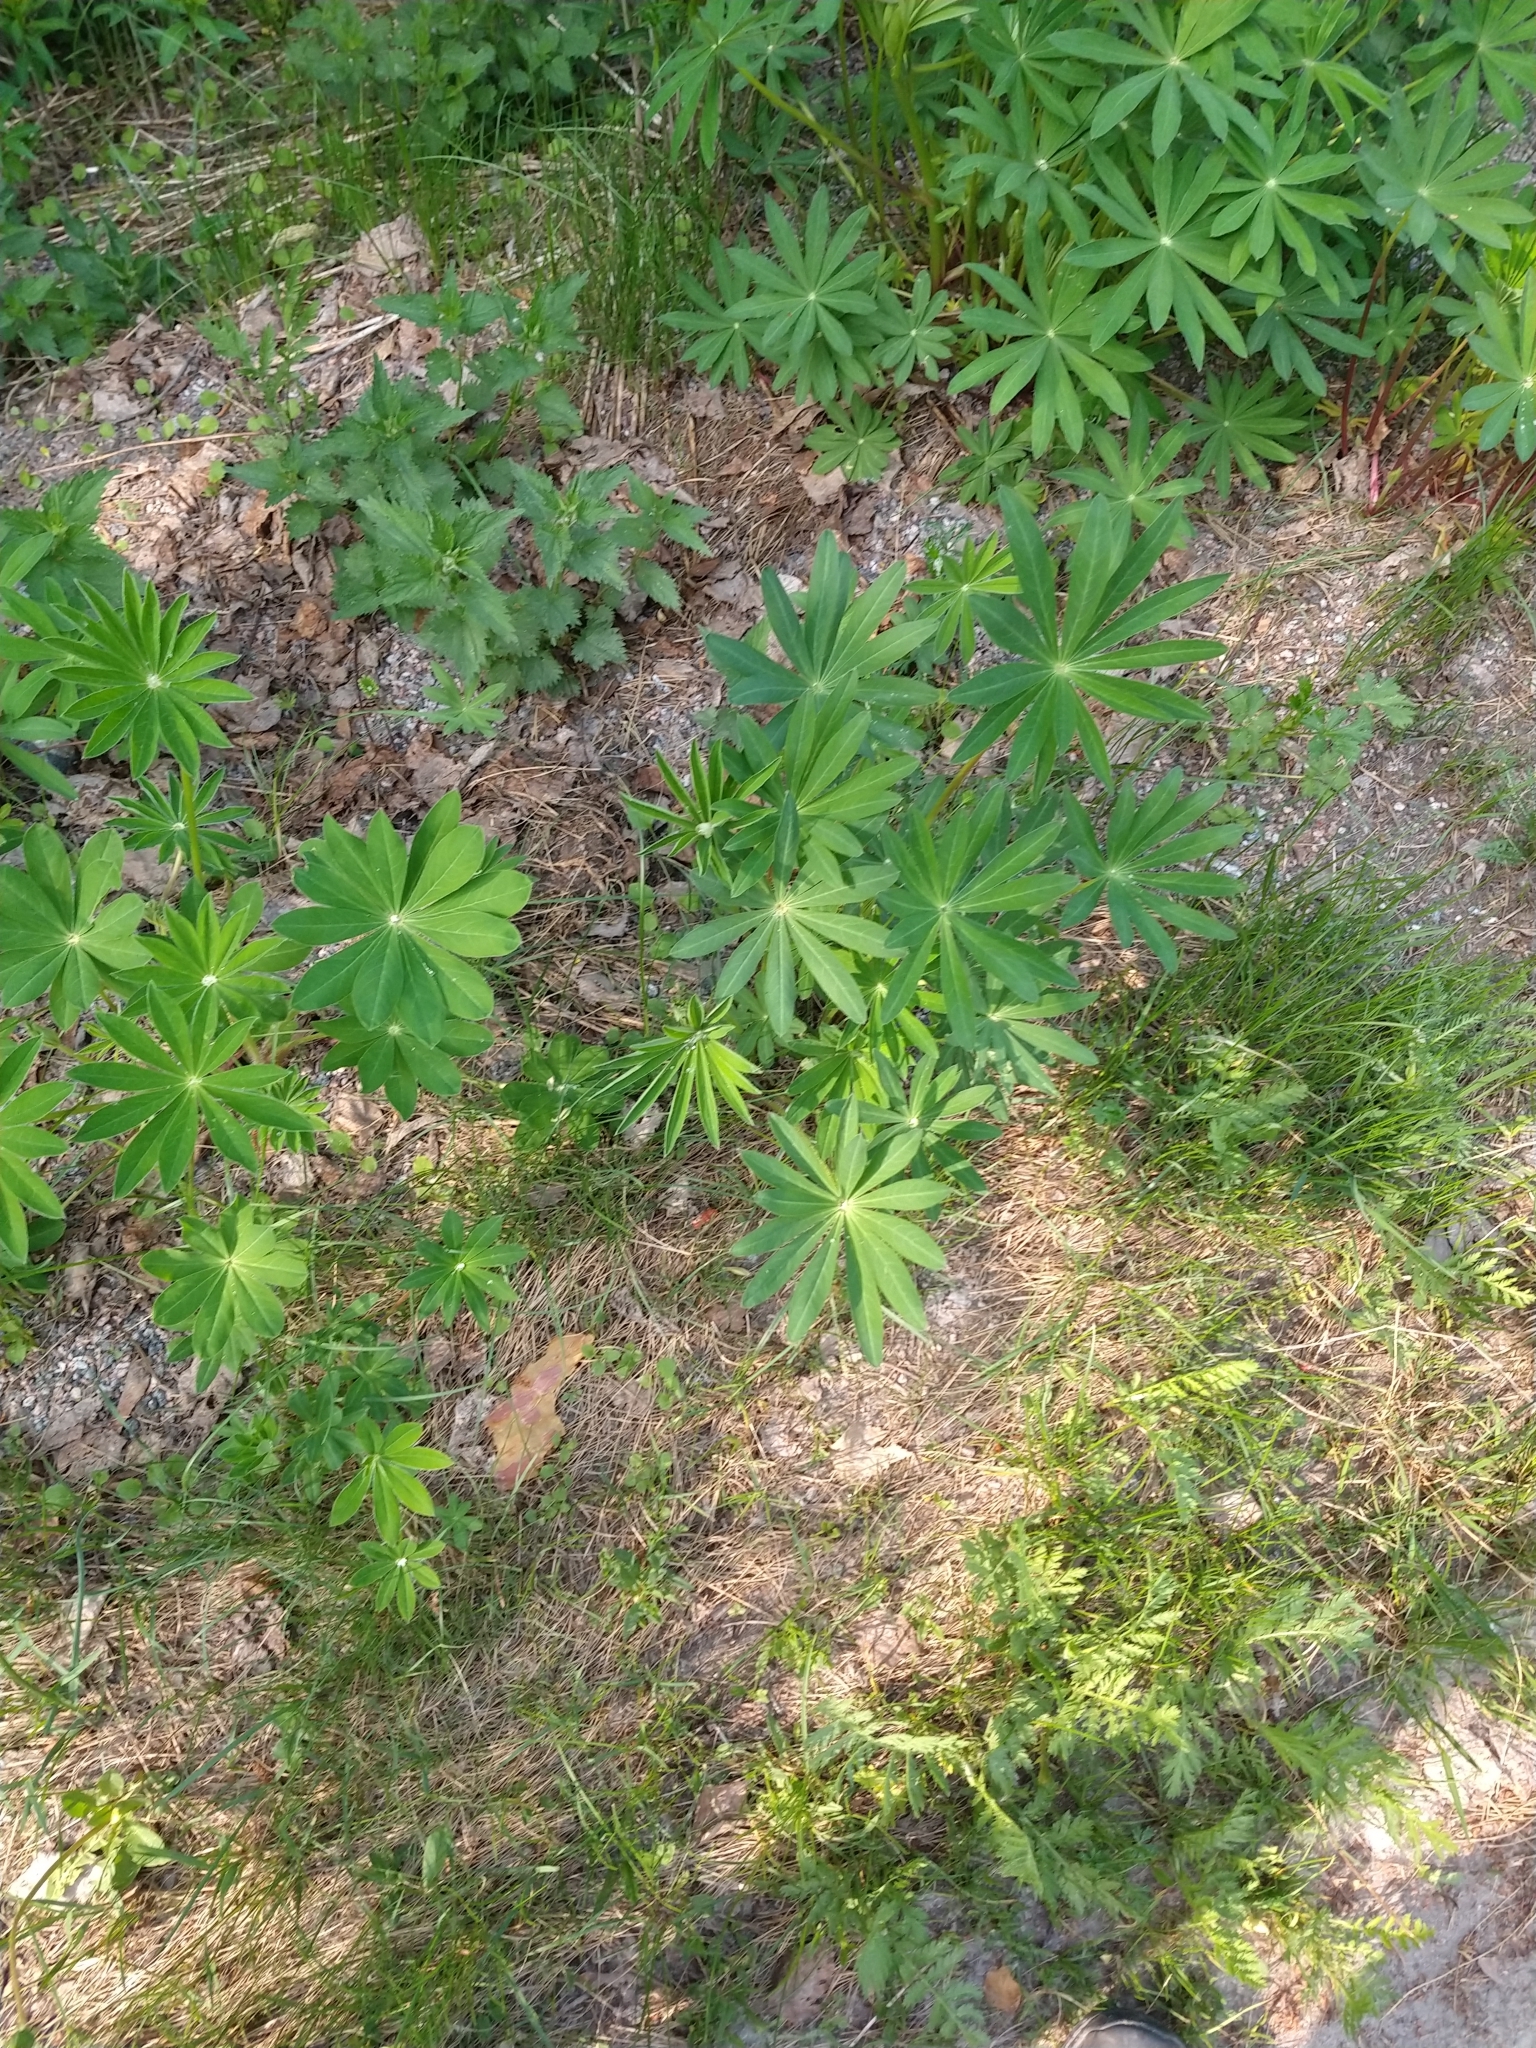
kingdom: Plantae
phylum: Tracheophyta
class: Magnoliopsida
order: Fabales
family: Fabaceae
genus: Lupinus
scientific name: Lupinus polyphyllus
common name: Garden lupin
